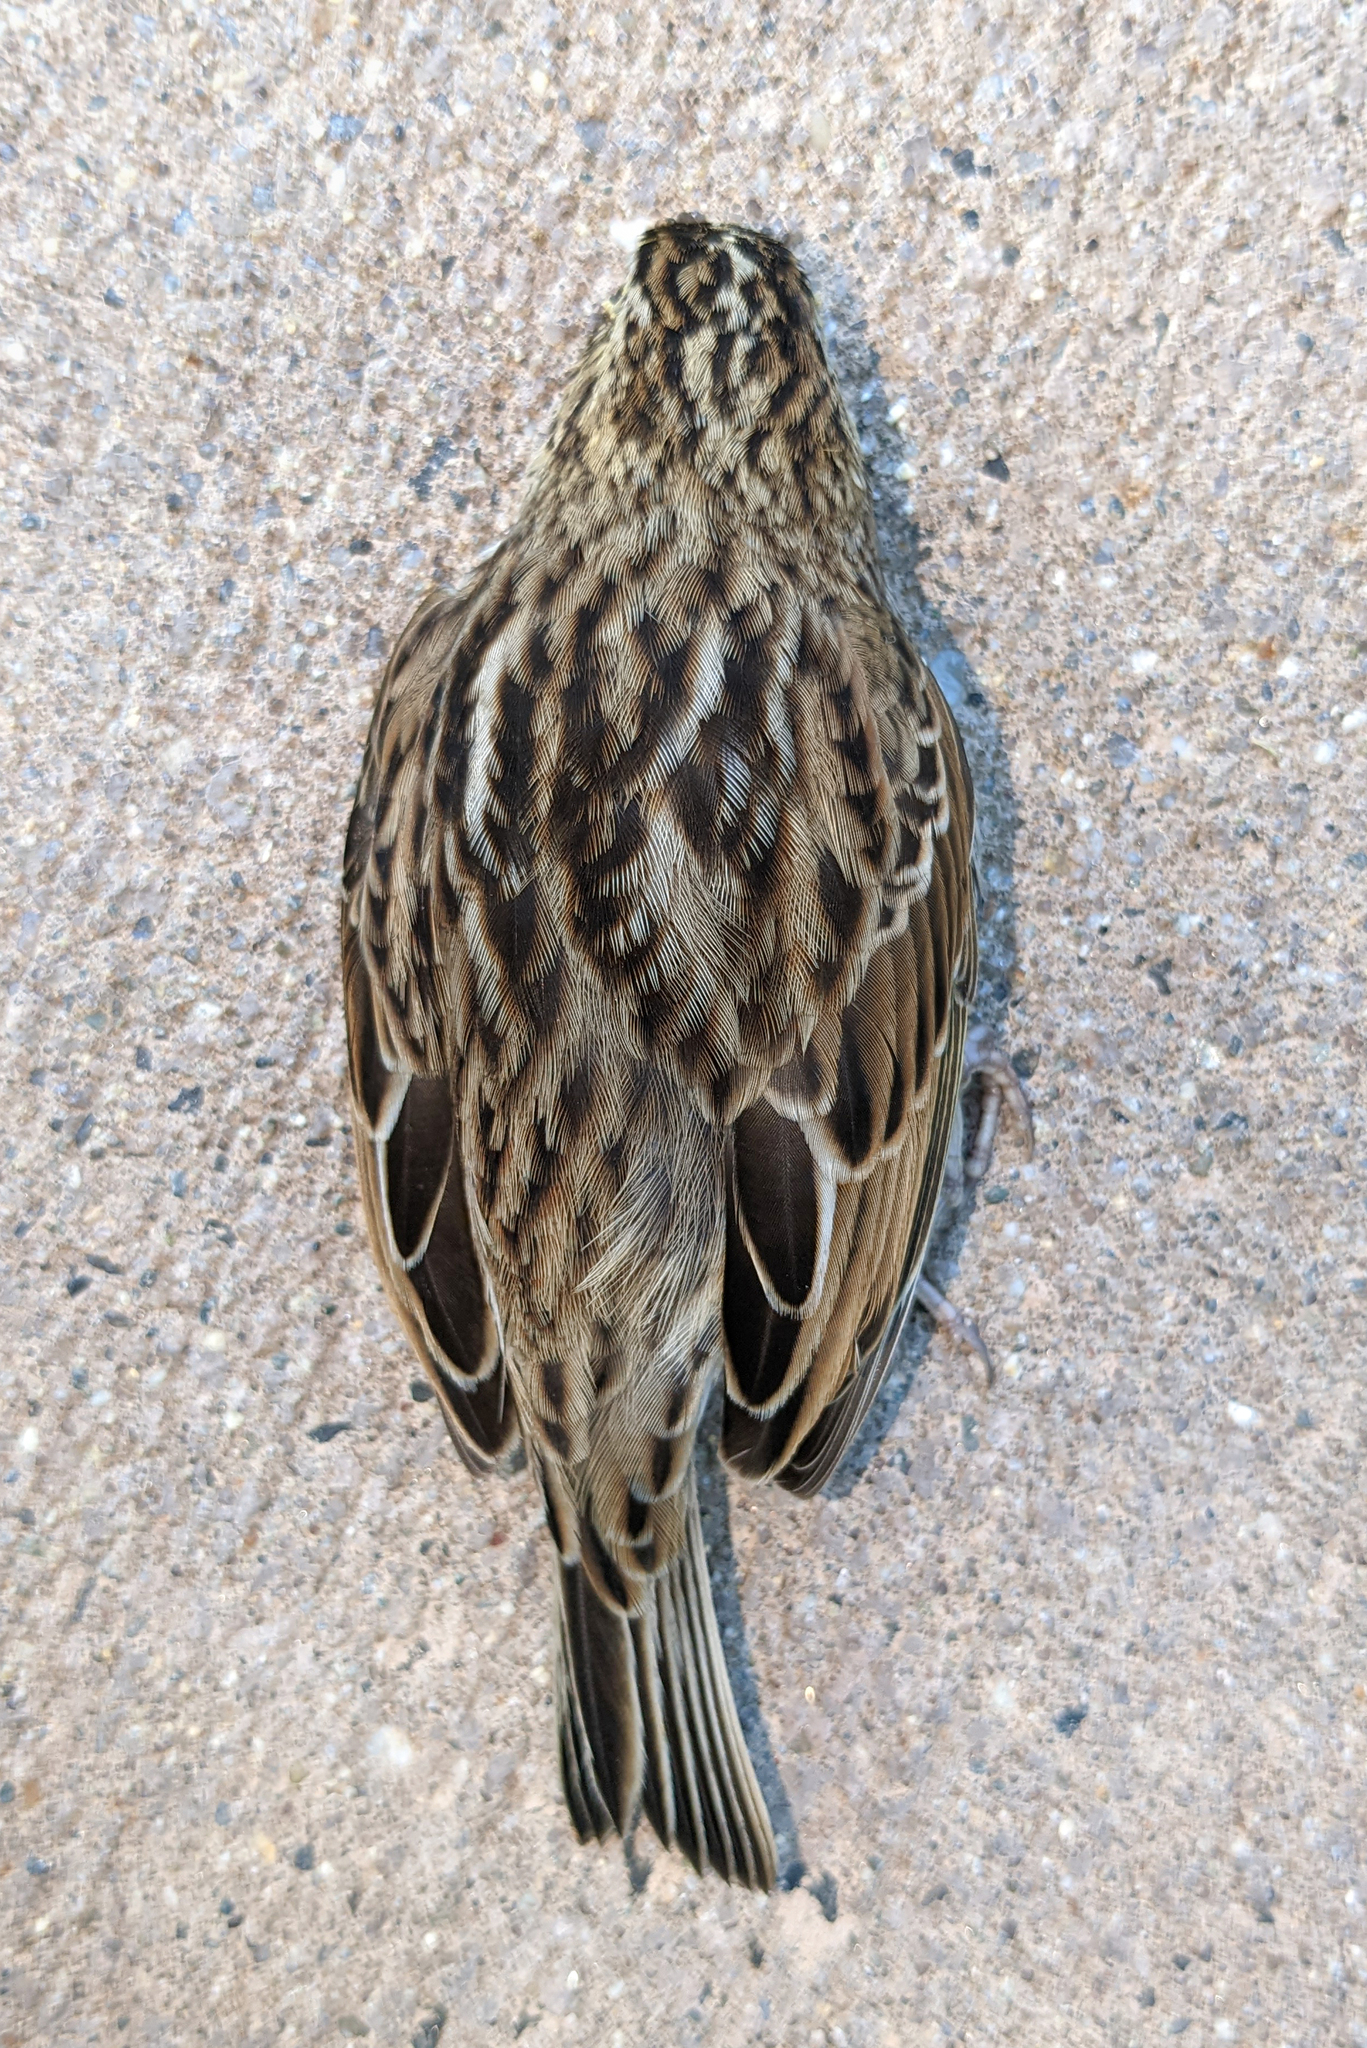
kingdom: Animalia
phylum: Chordata
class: Aves
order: Passeriformes
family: Passerellidae
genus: Passerculus
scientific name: Passerculus sandwichensis
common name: Savannah sparrow
